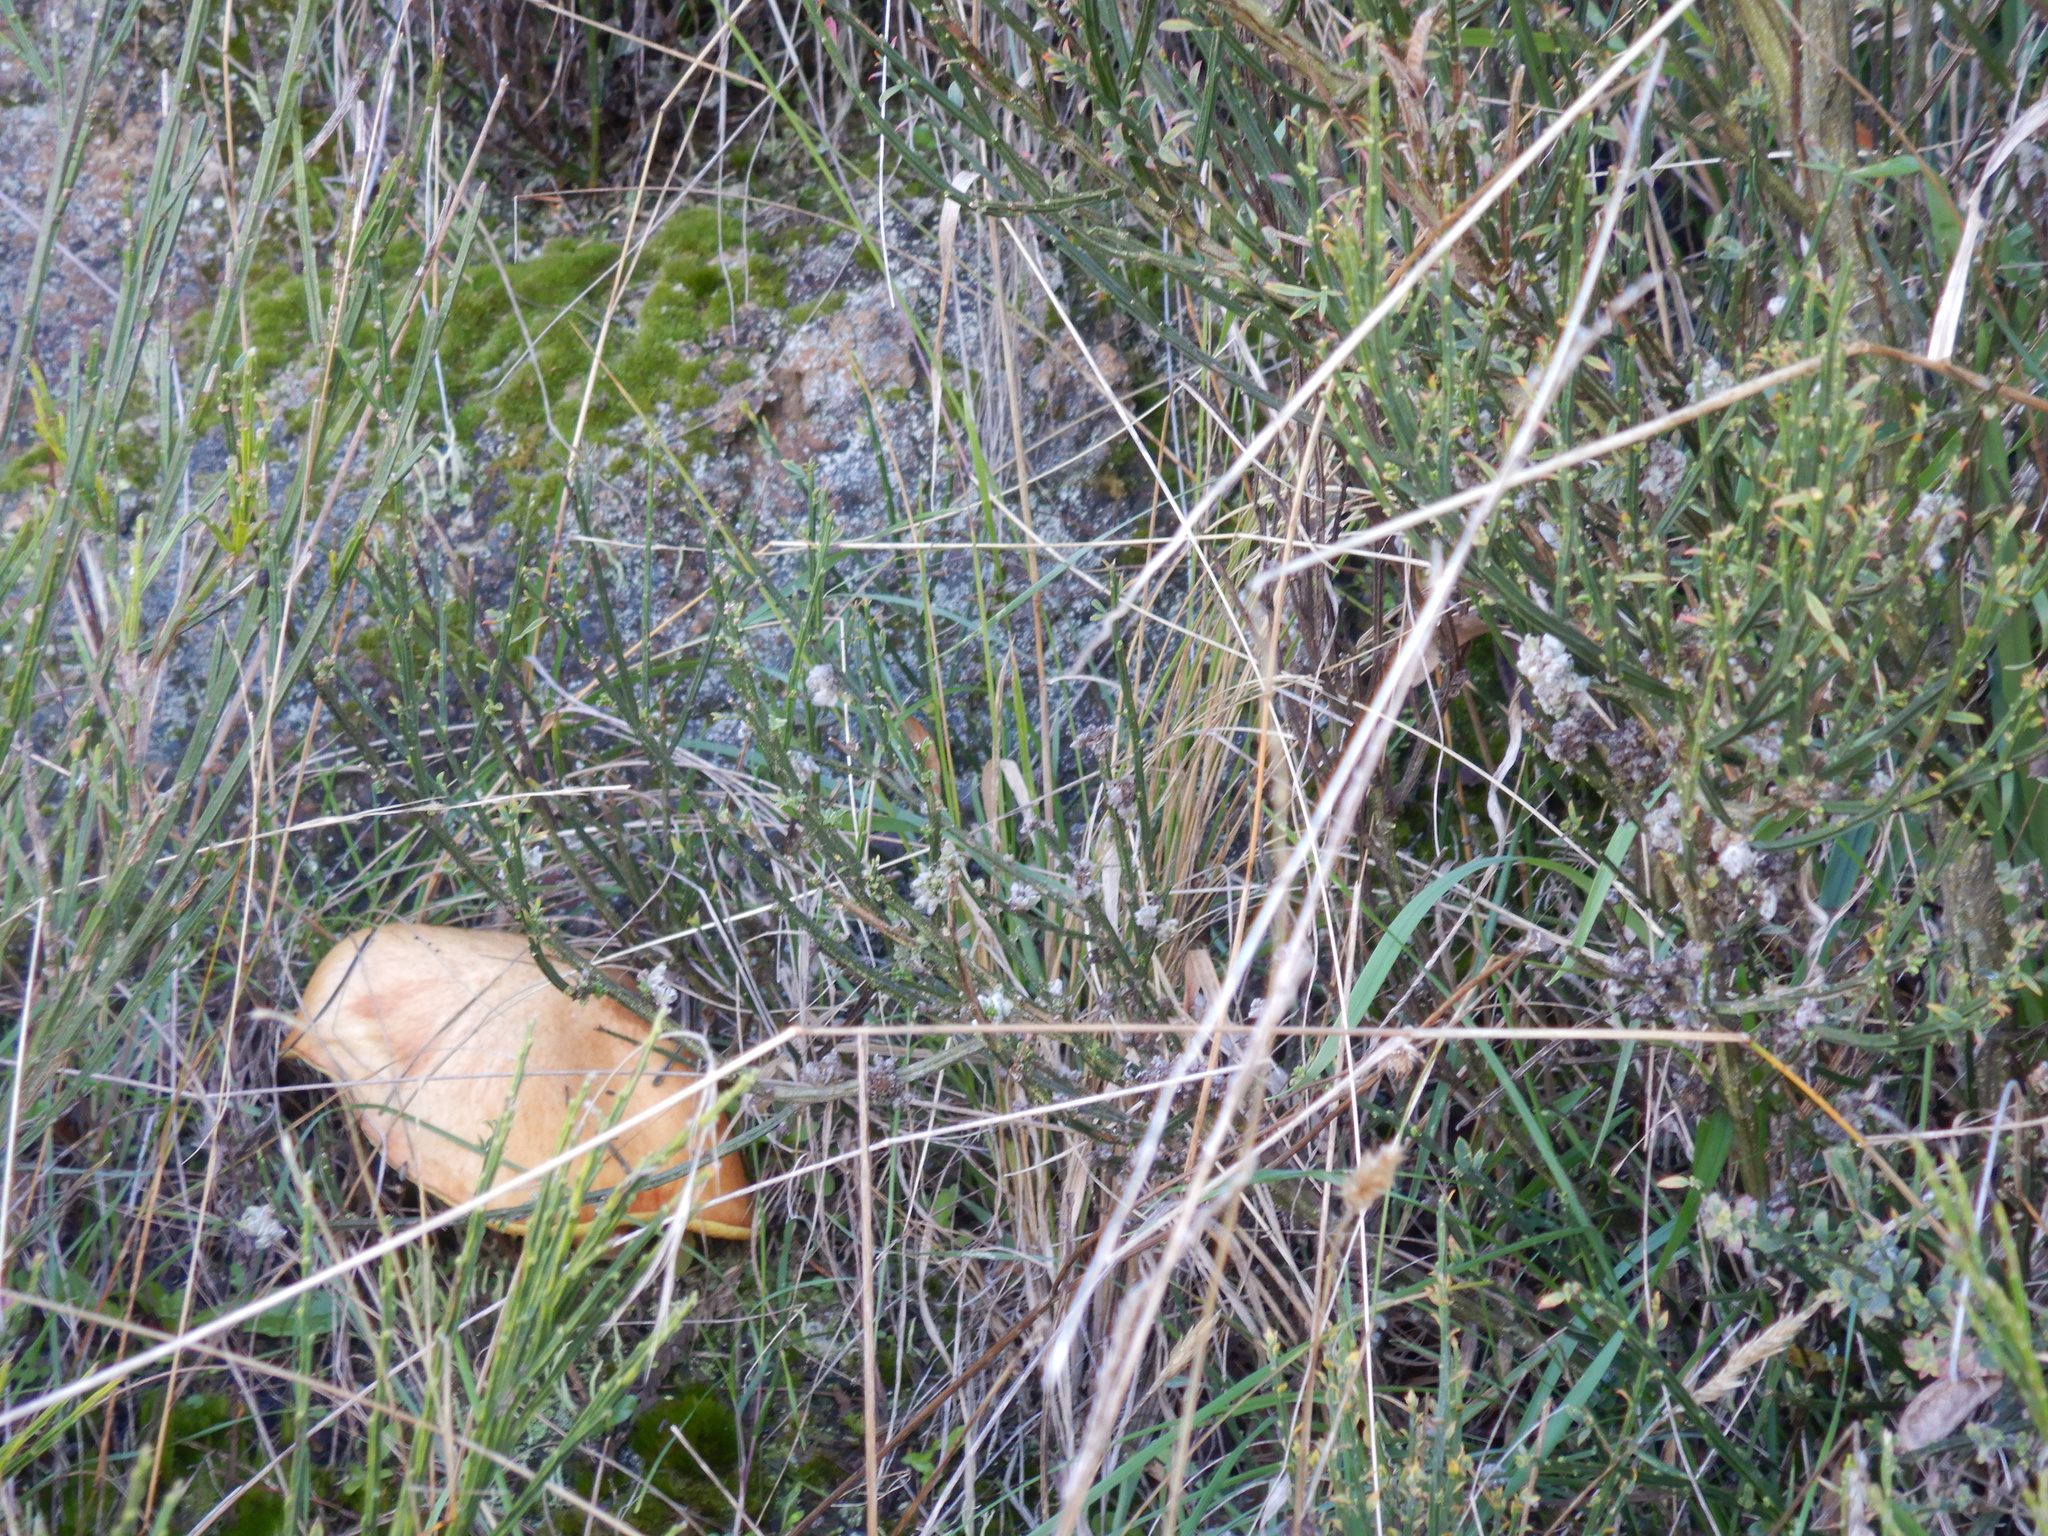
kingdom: Animalia
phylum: Arthropoda
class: Arachnida
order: Trombidiformes
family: Eriophyidae
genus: Aceria
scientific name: Aceria genistae
